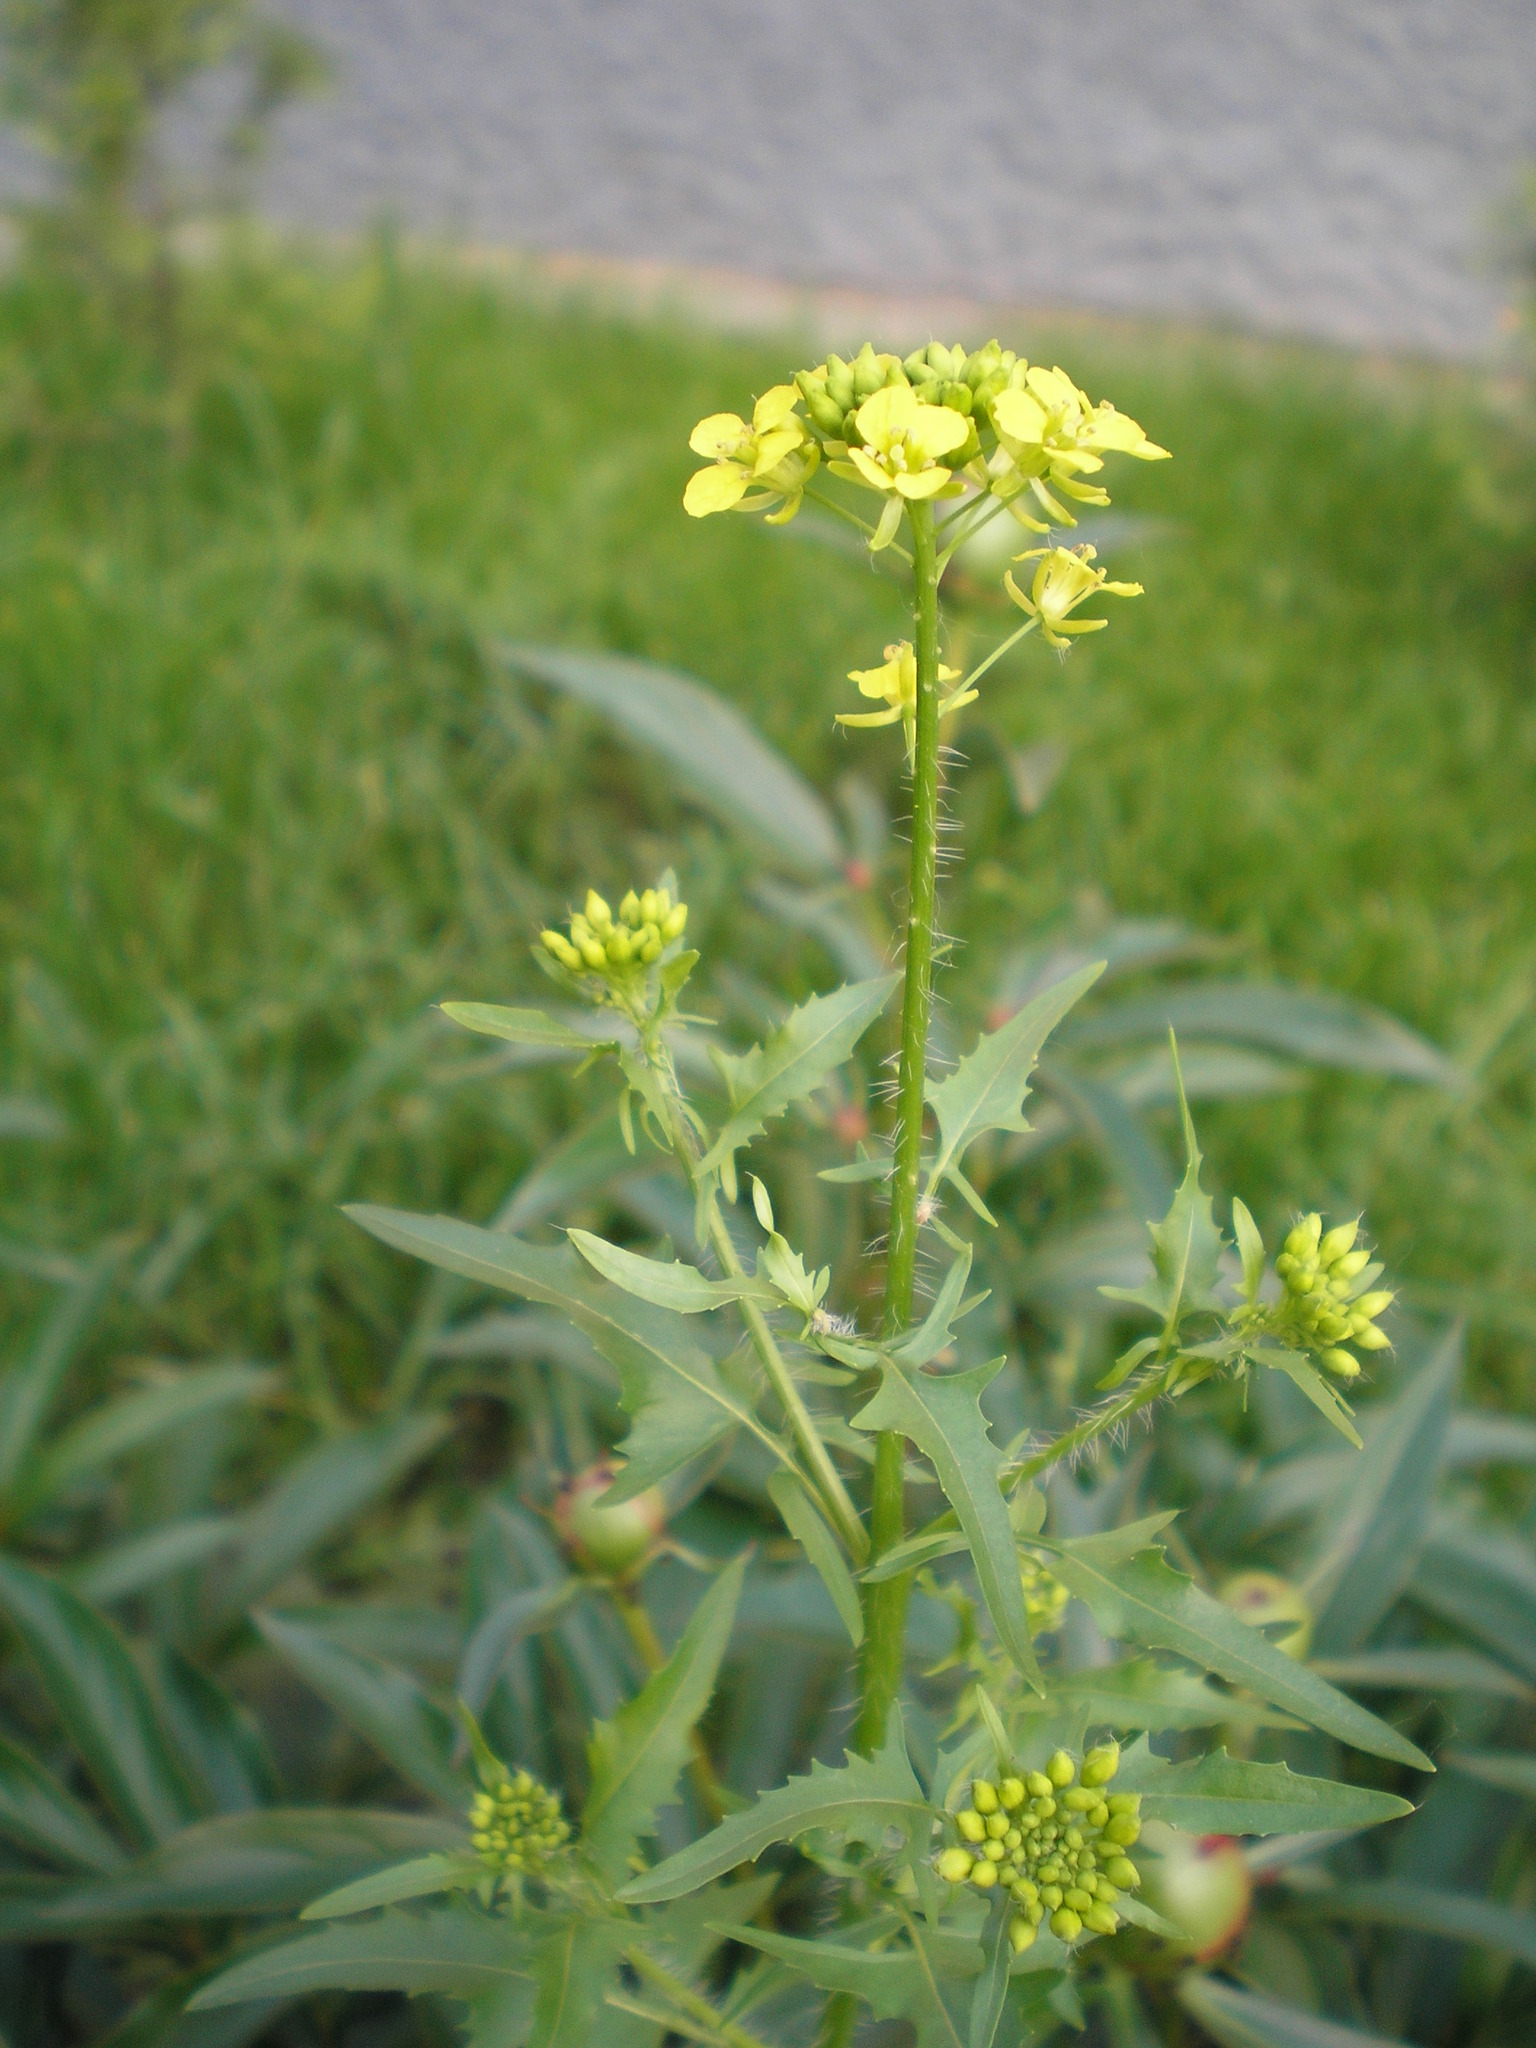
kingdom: Plantae
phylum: Tracheophyta
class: Magnoliopsida
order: Brassicales
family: Brassicaceae
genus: Sisymbrium
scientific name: Sisymbrium loeselii
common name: False london-rocket
